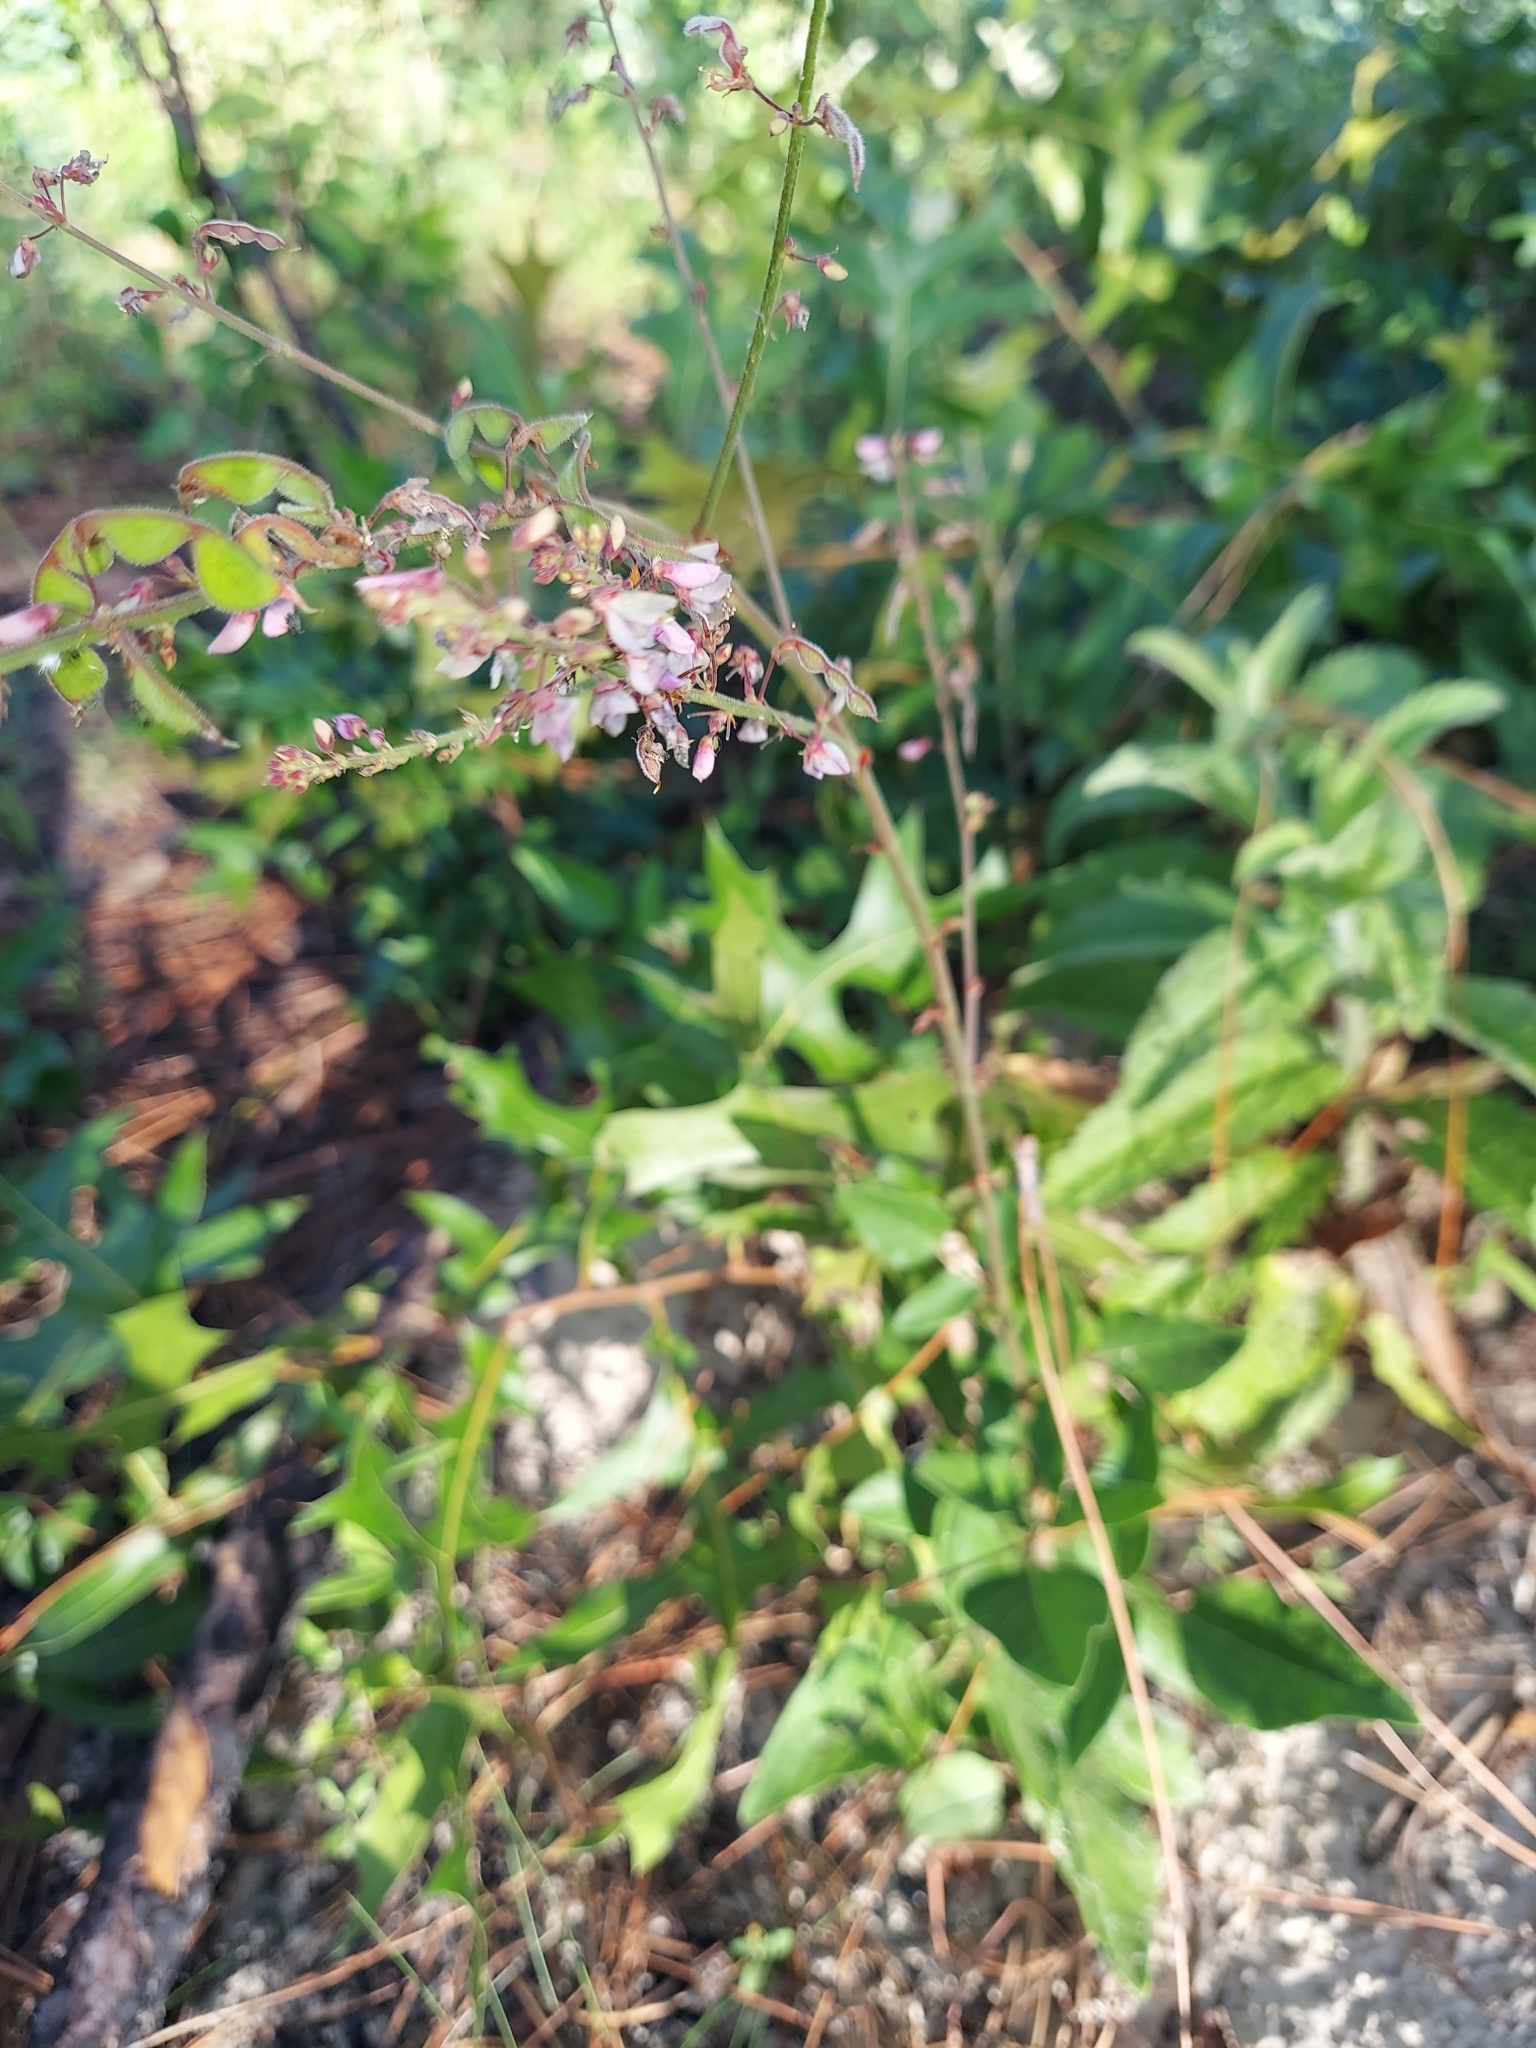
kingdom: Plantae
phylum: Tracheophyta
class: Magnoliopsida
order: Fabales
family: Fabaceae
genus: Desmodium
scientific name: Desmodium floridanum
